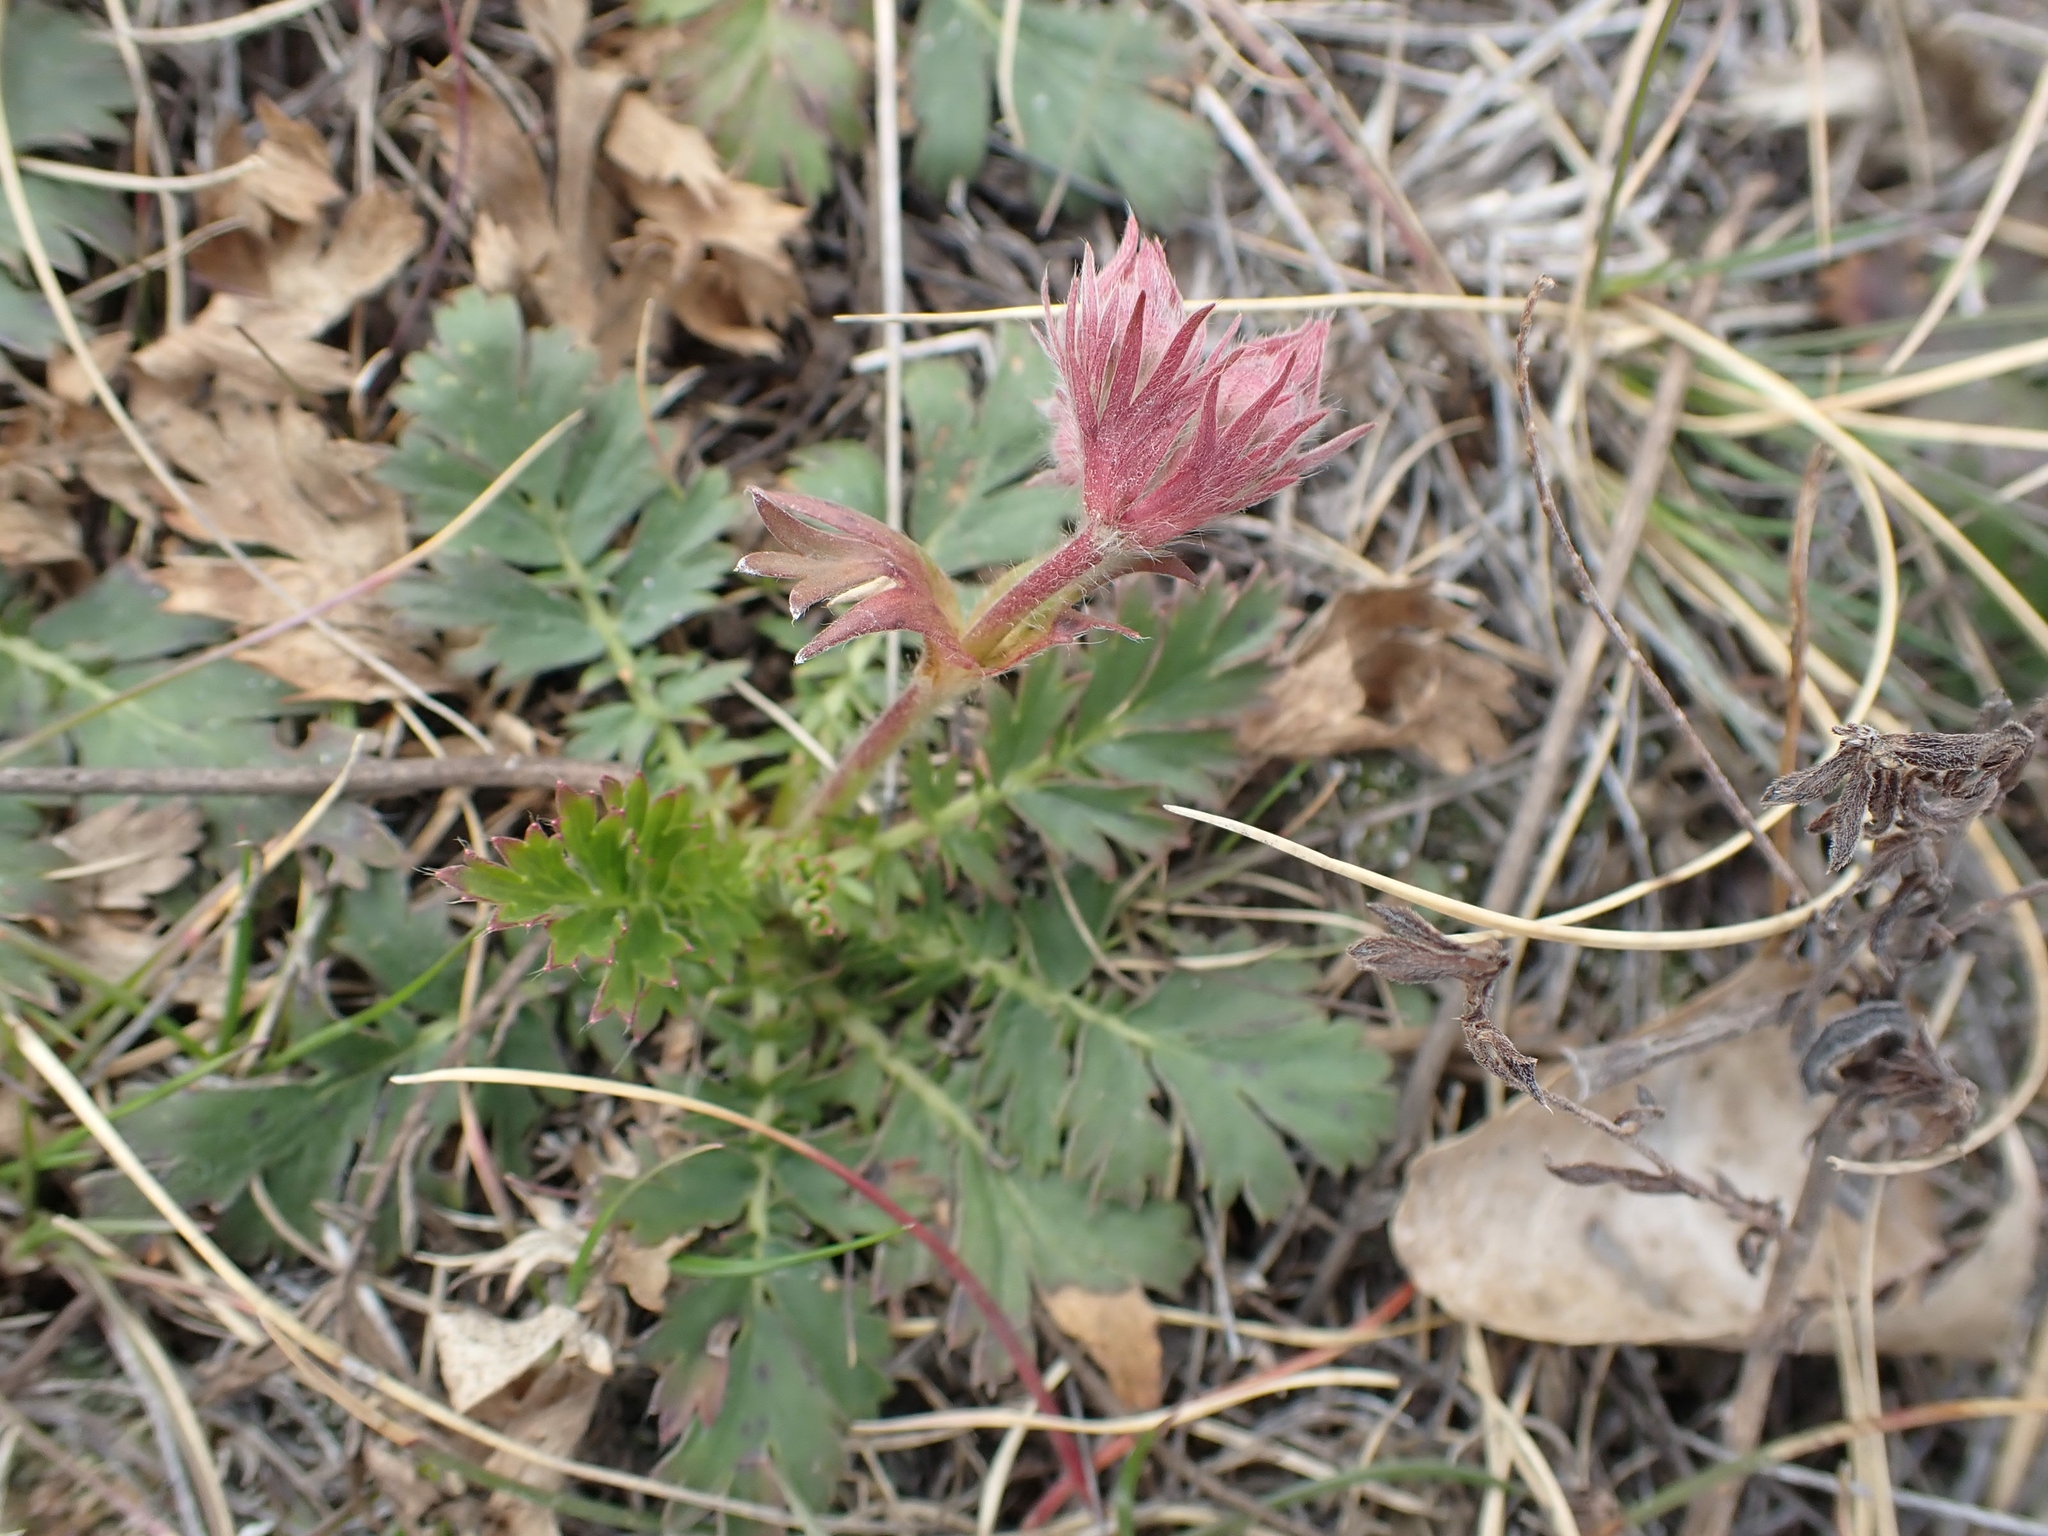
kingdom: Plantae
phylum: Tracheophyta
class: Magnoliopsida
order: Rosales
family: Rosaceae
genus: Geum
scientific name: Geum triflorum
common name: Old man's whiskers
